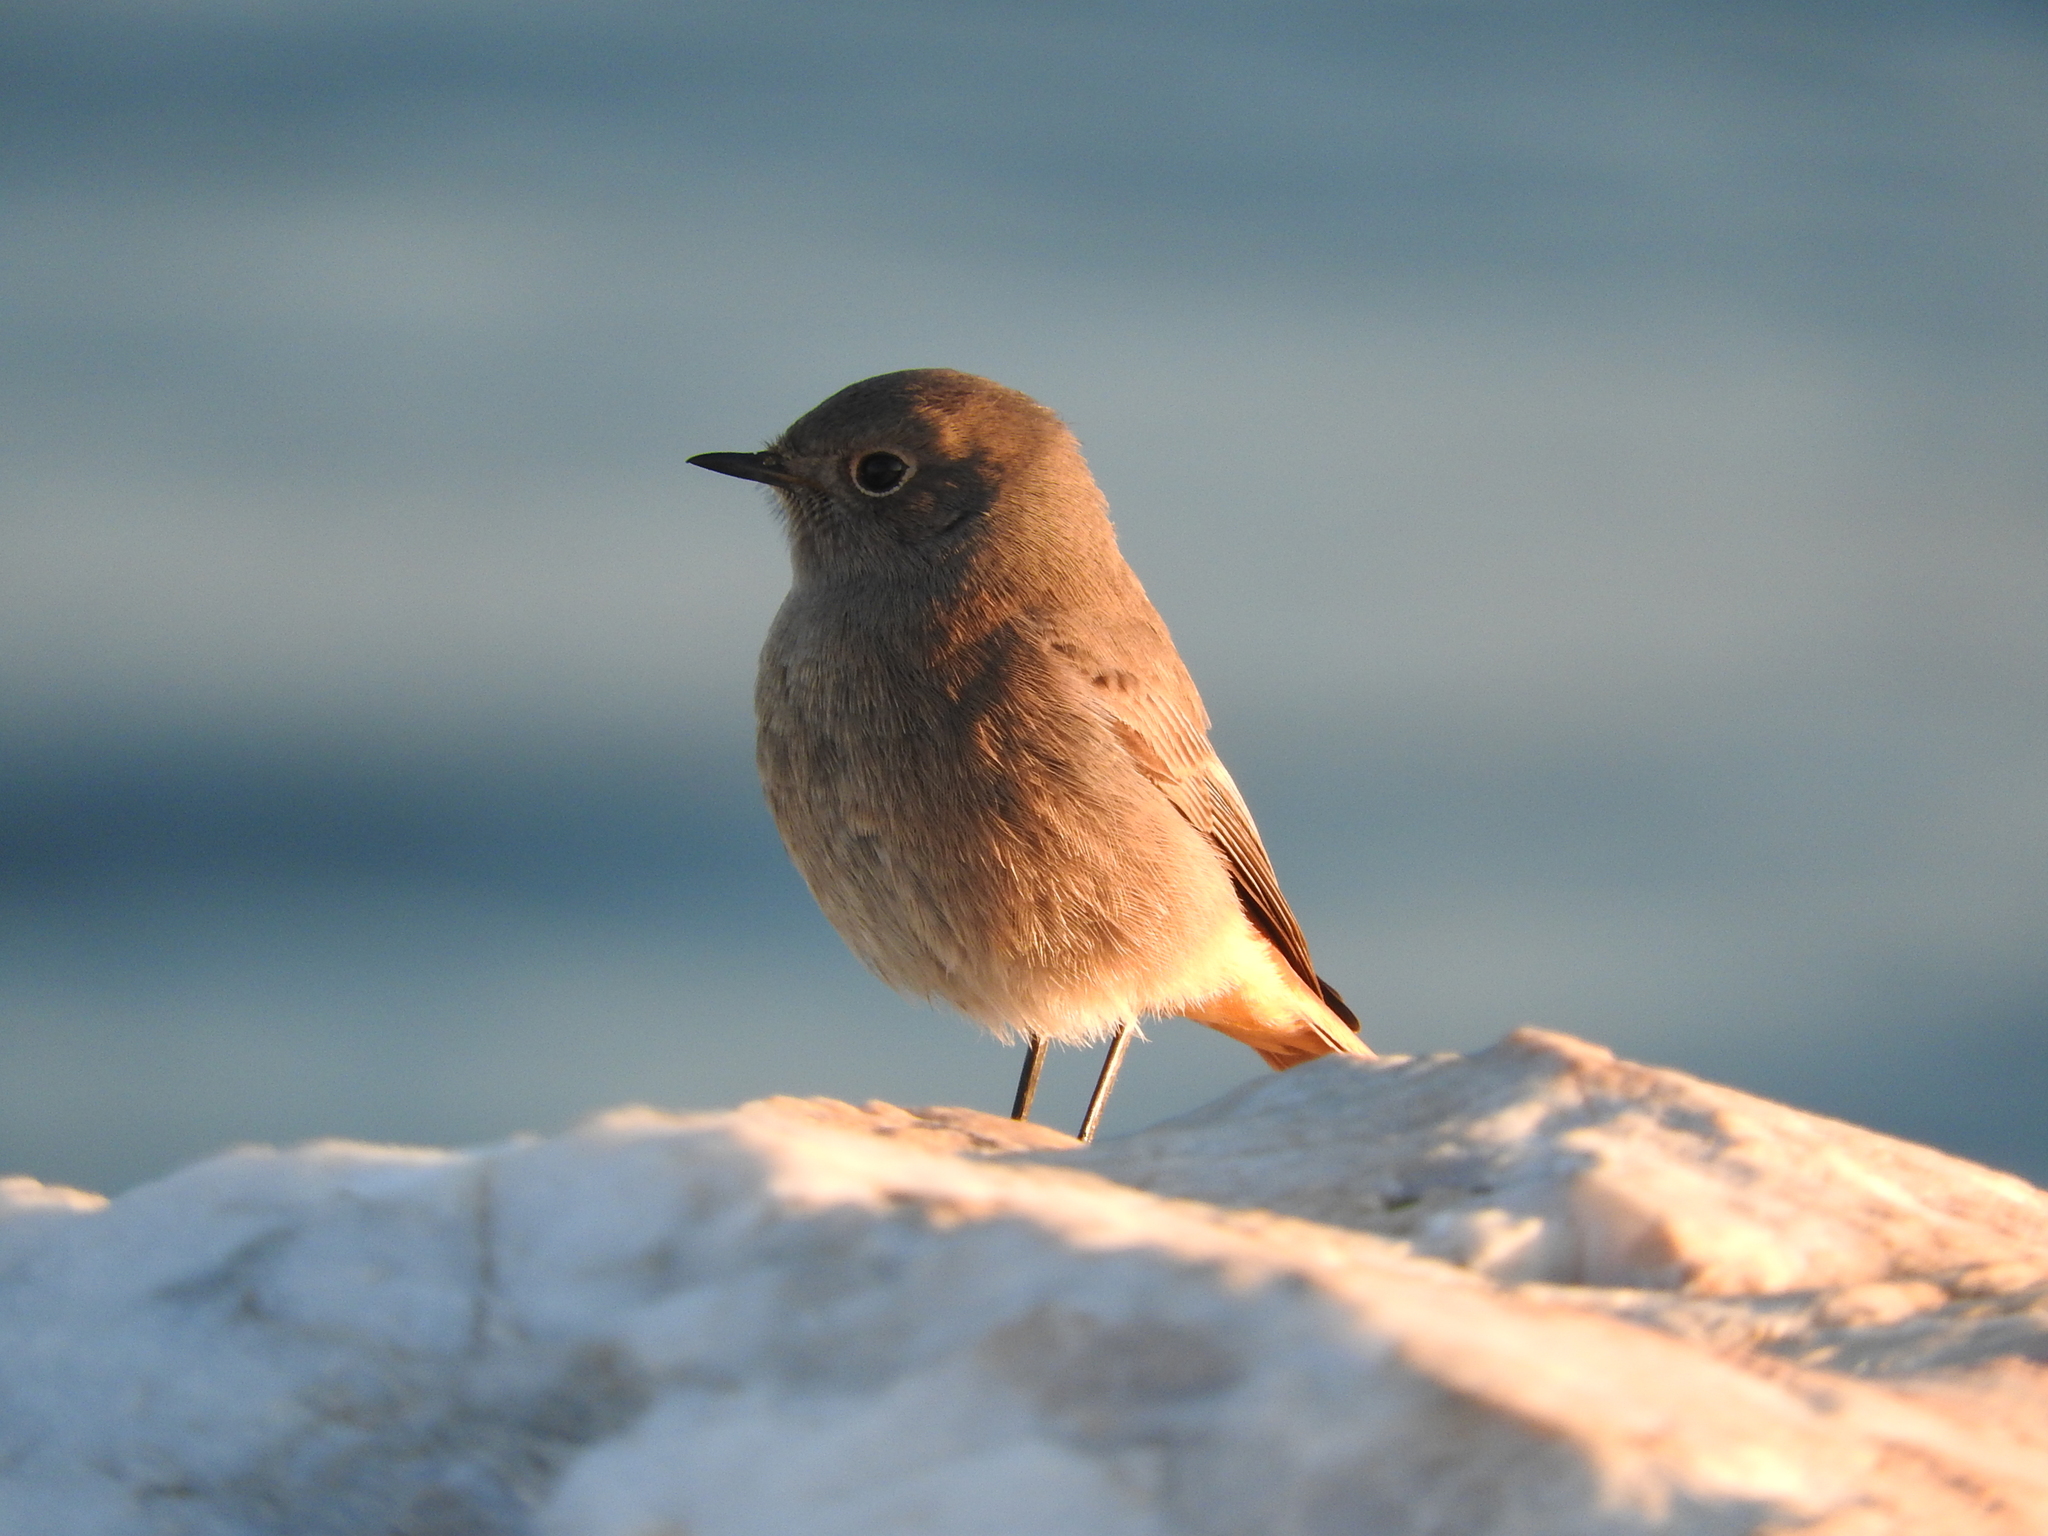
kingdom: Animalia
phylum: Chordata
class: Aves
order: Passeriformes
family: Muscicapidae
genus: Phoenicurus
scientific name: Phoenicurus ochruros
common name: Black redstart
